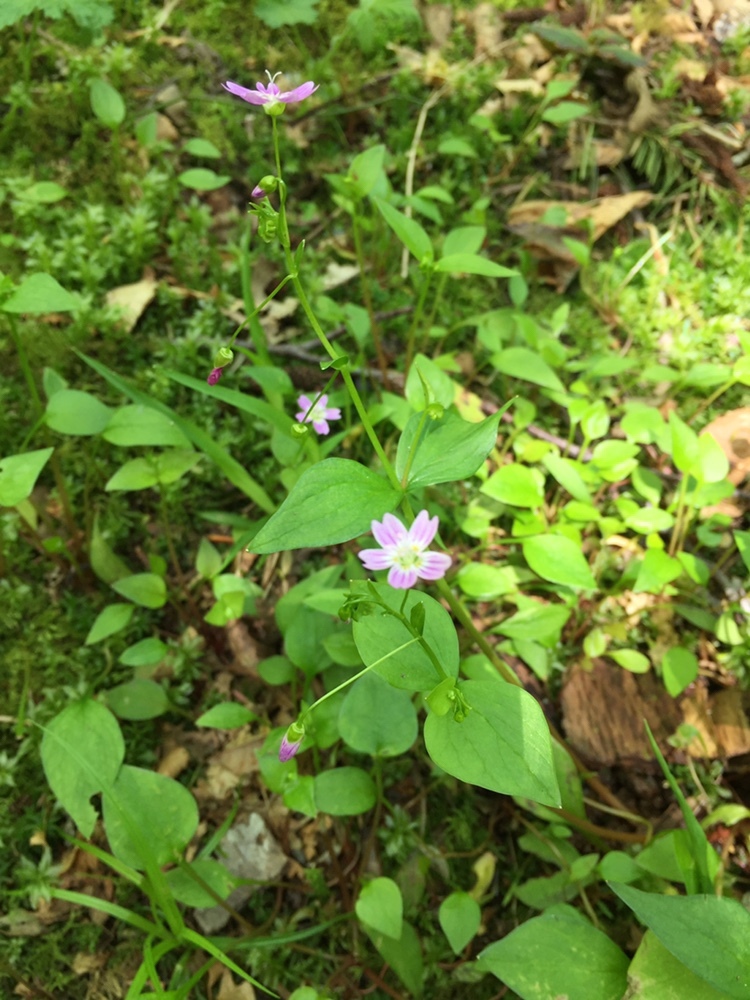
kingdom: Plantae
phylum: Tracheophyta
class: Magnoliopsida
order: Caryophyllales
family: Montiaceae
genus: Claytonia
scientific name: Claytonia sibirica
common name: Pink purslane
